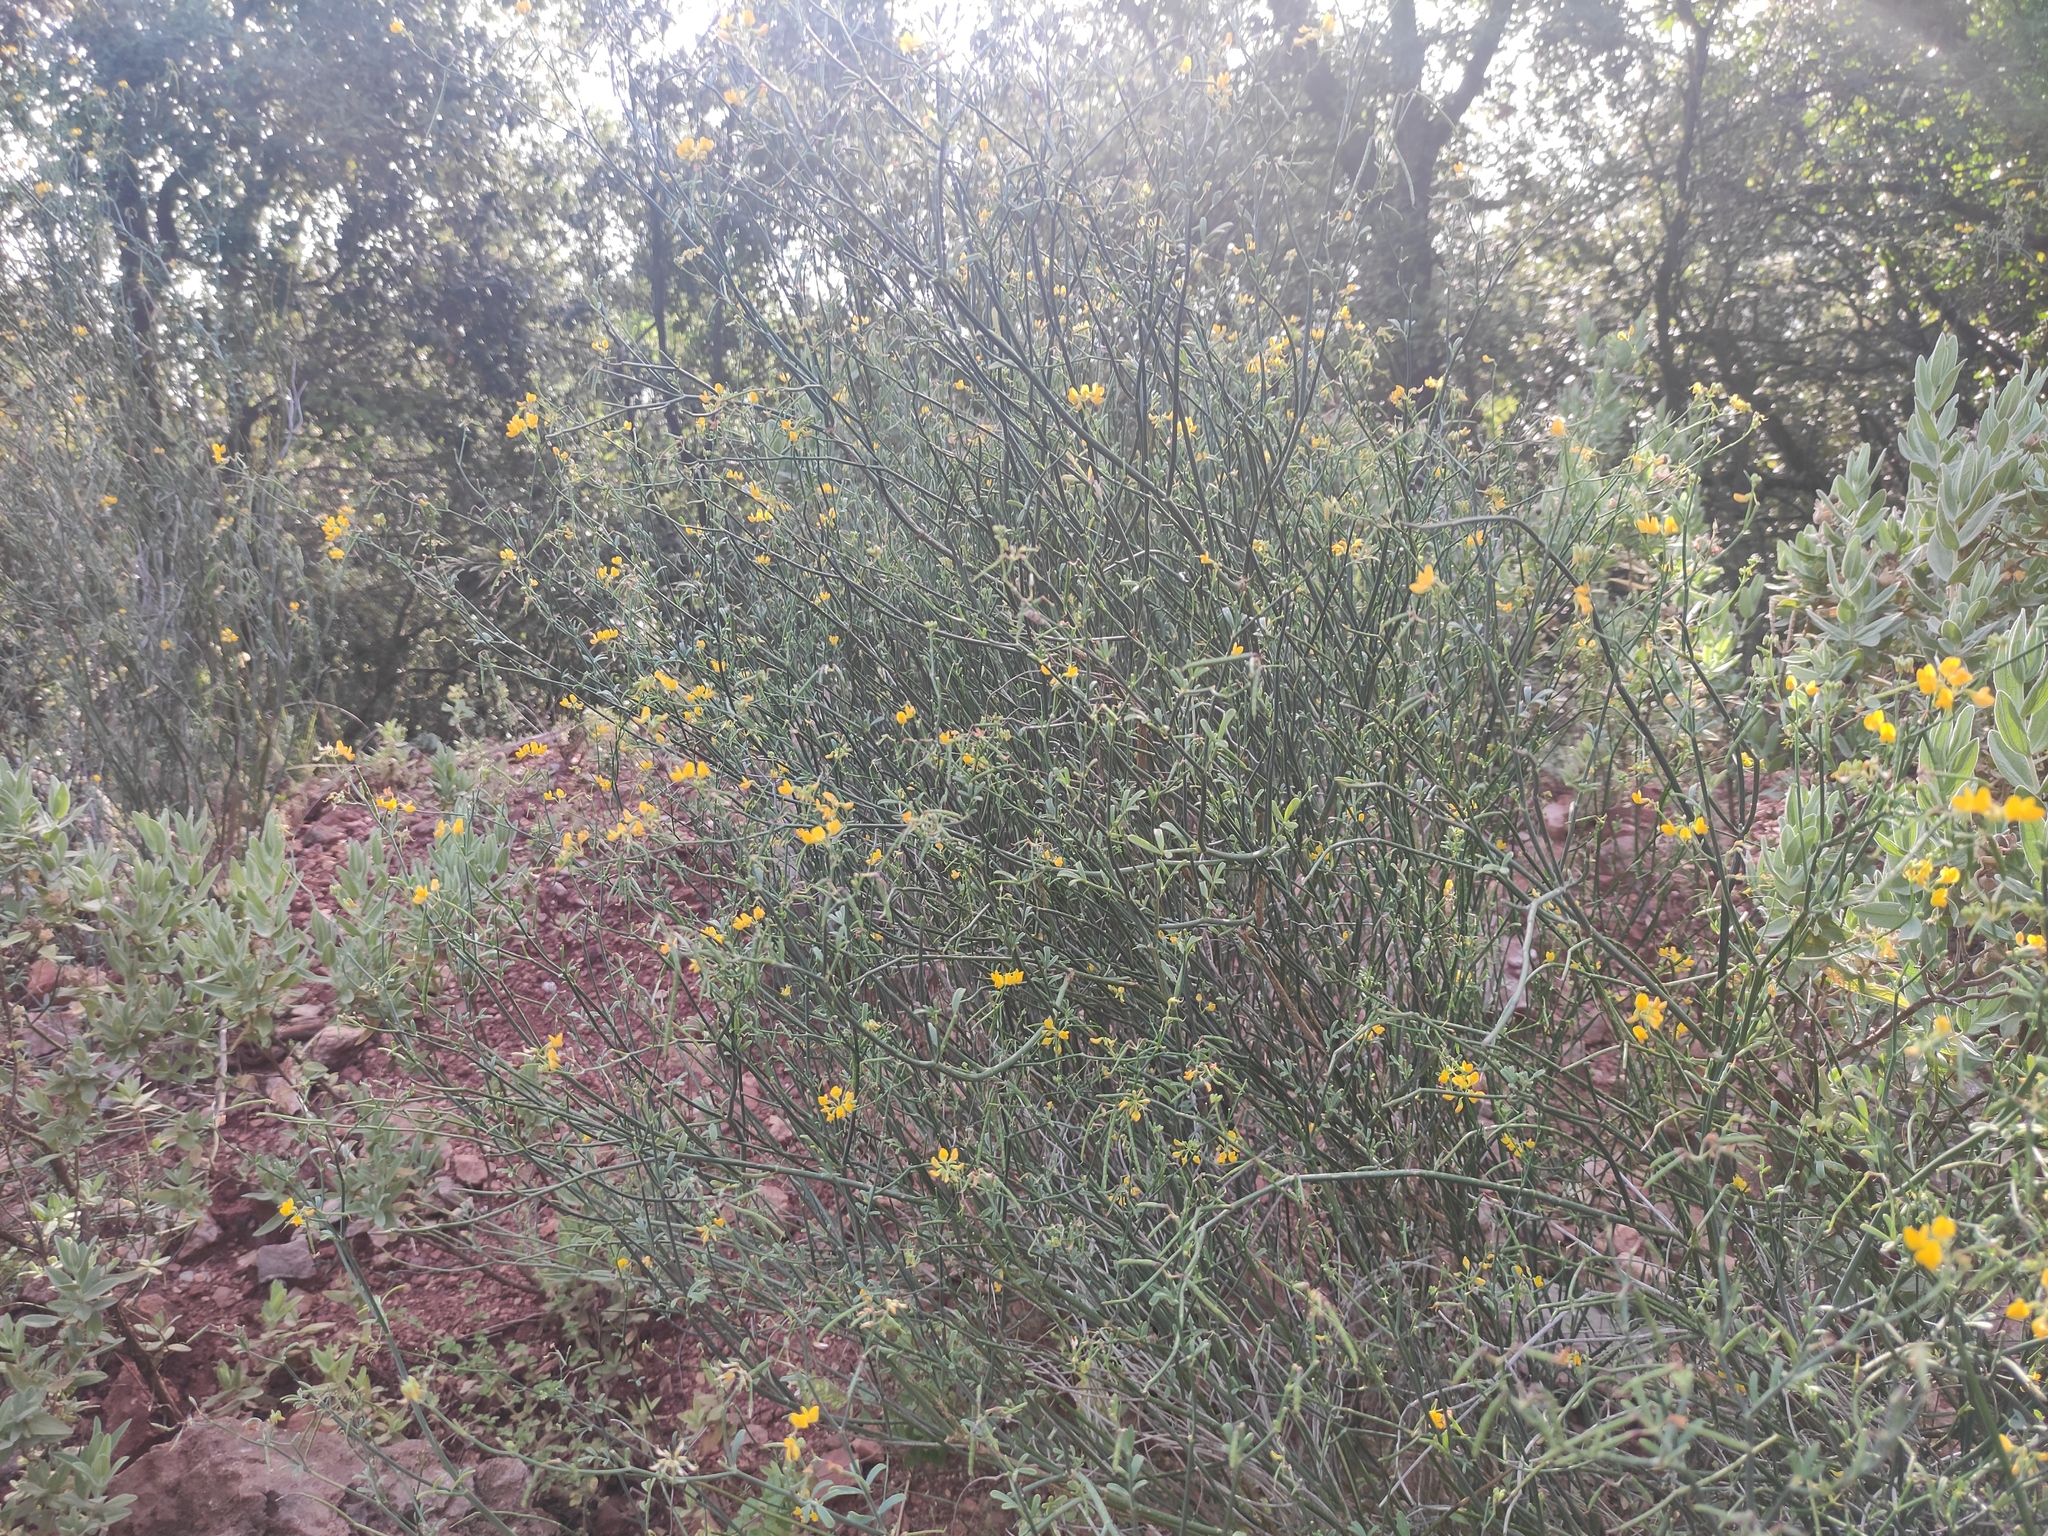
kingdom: Plantae
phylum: Tracheophyta
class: Magnoliopsida
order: Fabales
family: Fabaceae
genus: Coronilla
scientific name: Coronilla juncea
